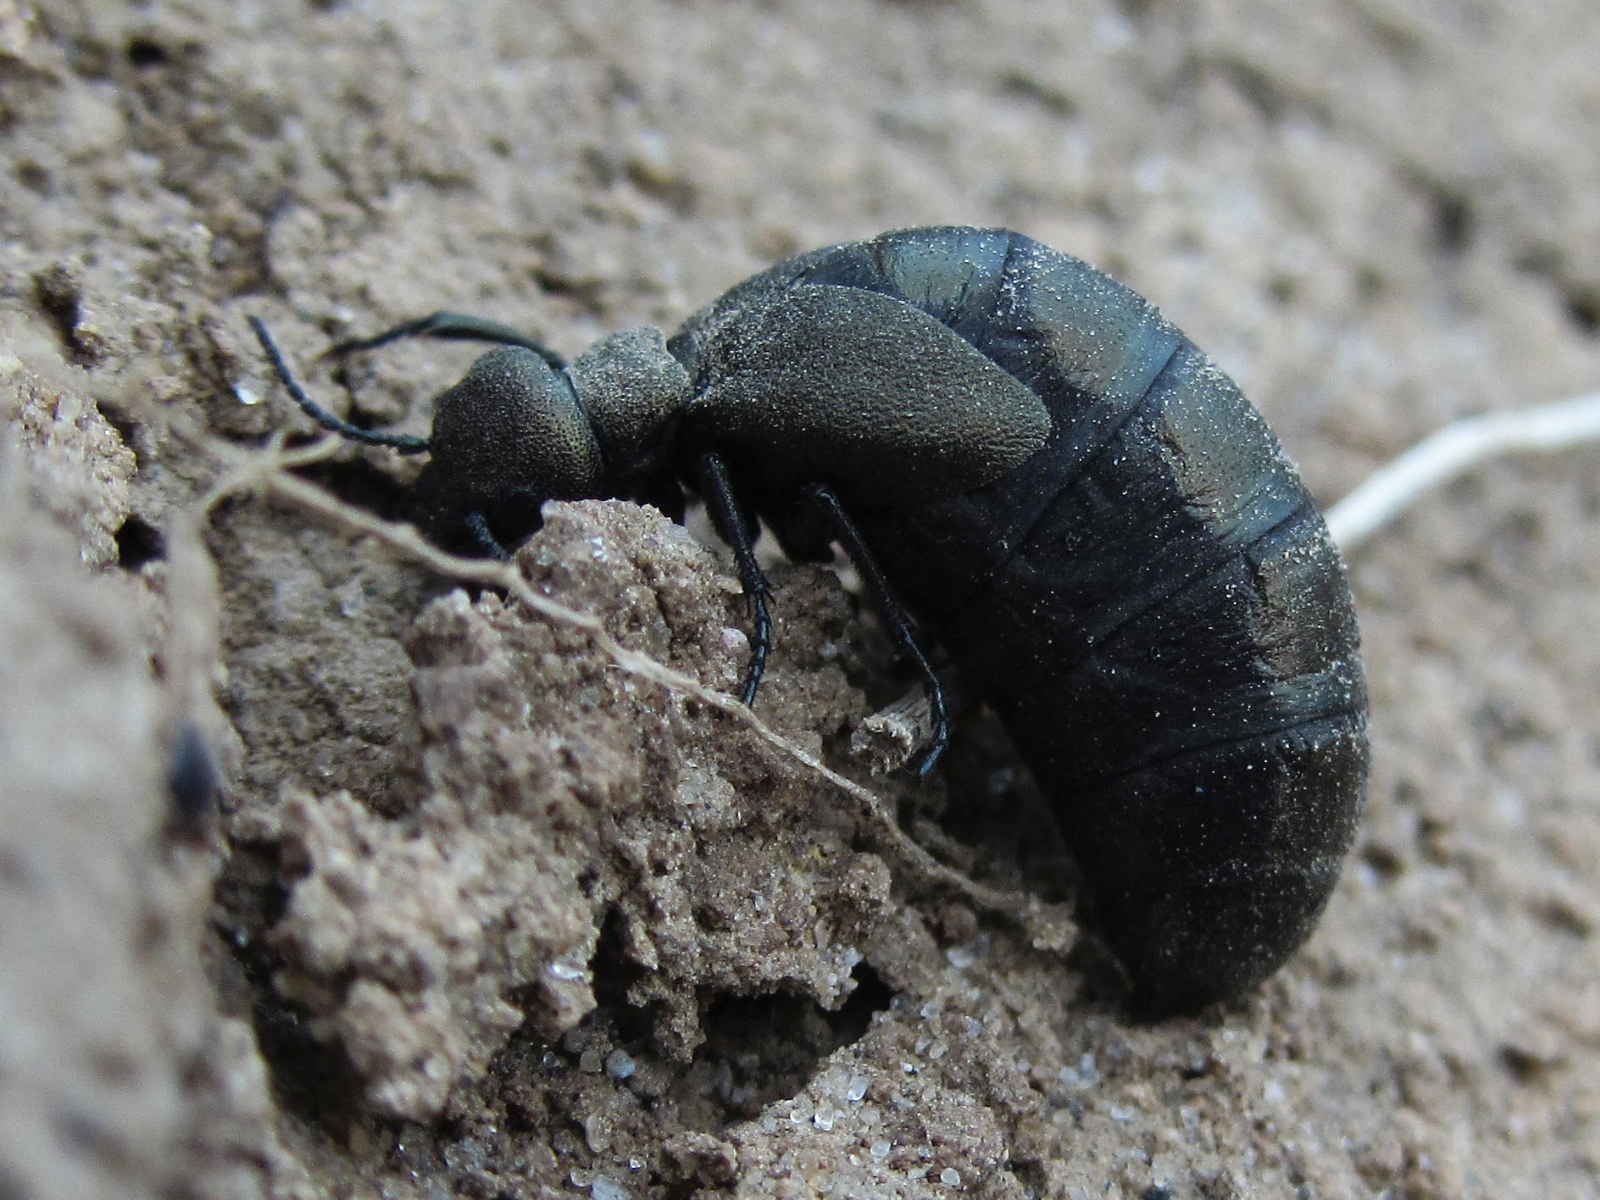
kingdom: Animalia
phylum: Arthropoda
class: Insecta
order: Coleoptera
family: Meloidae
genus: Meloe
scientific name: Meloe aeneus
